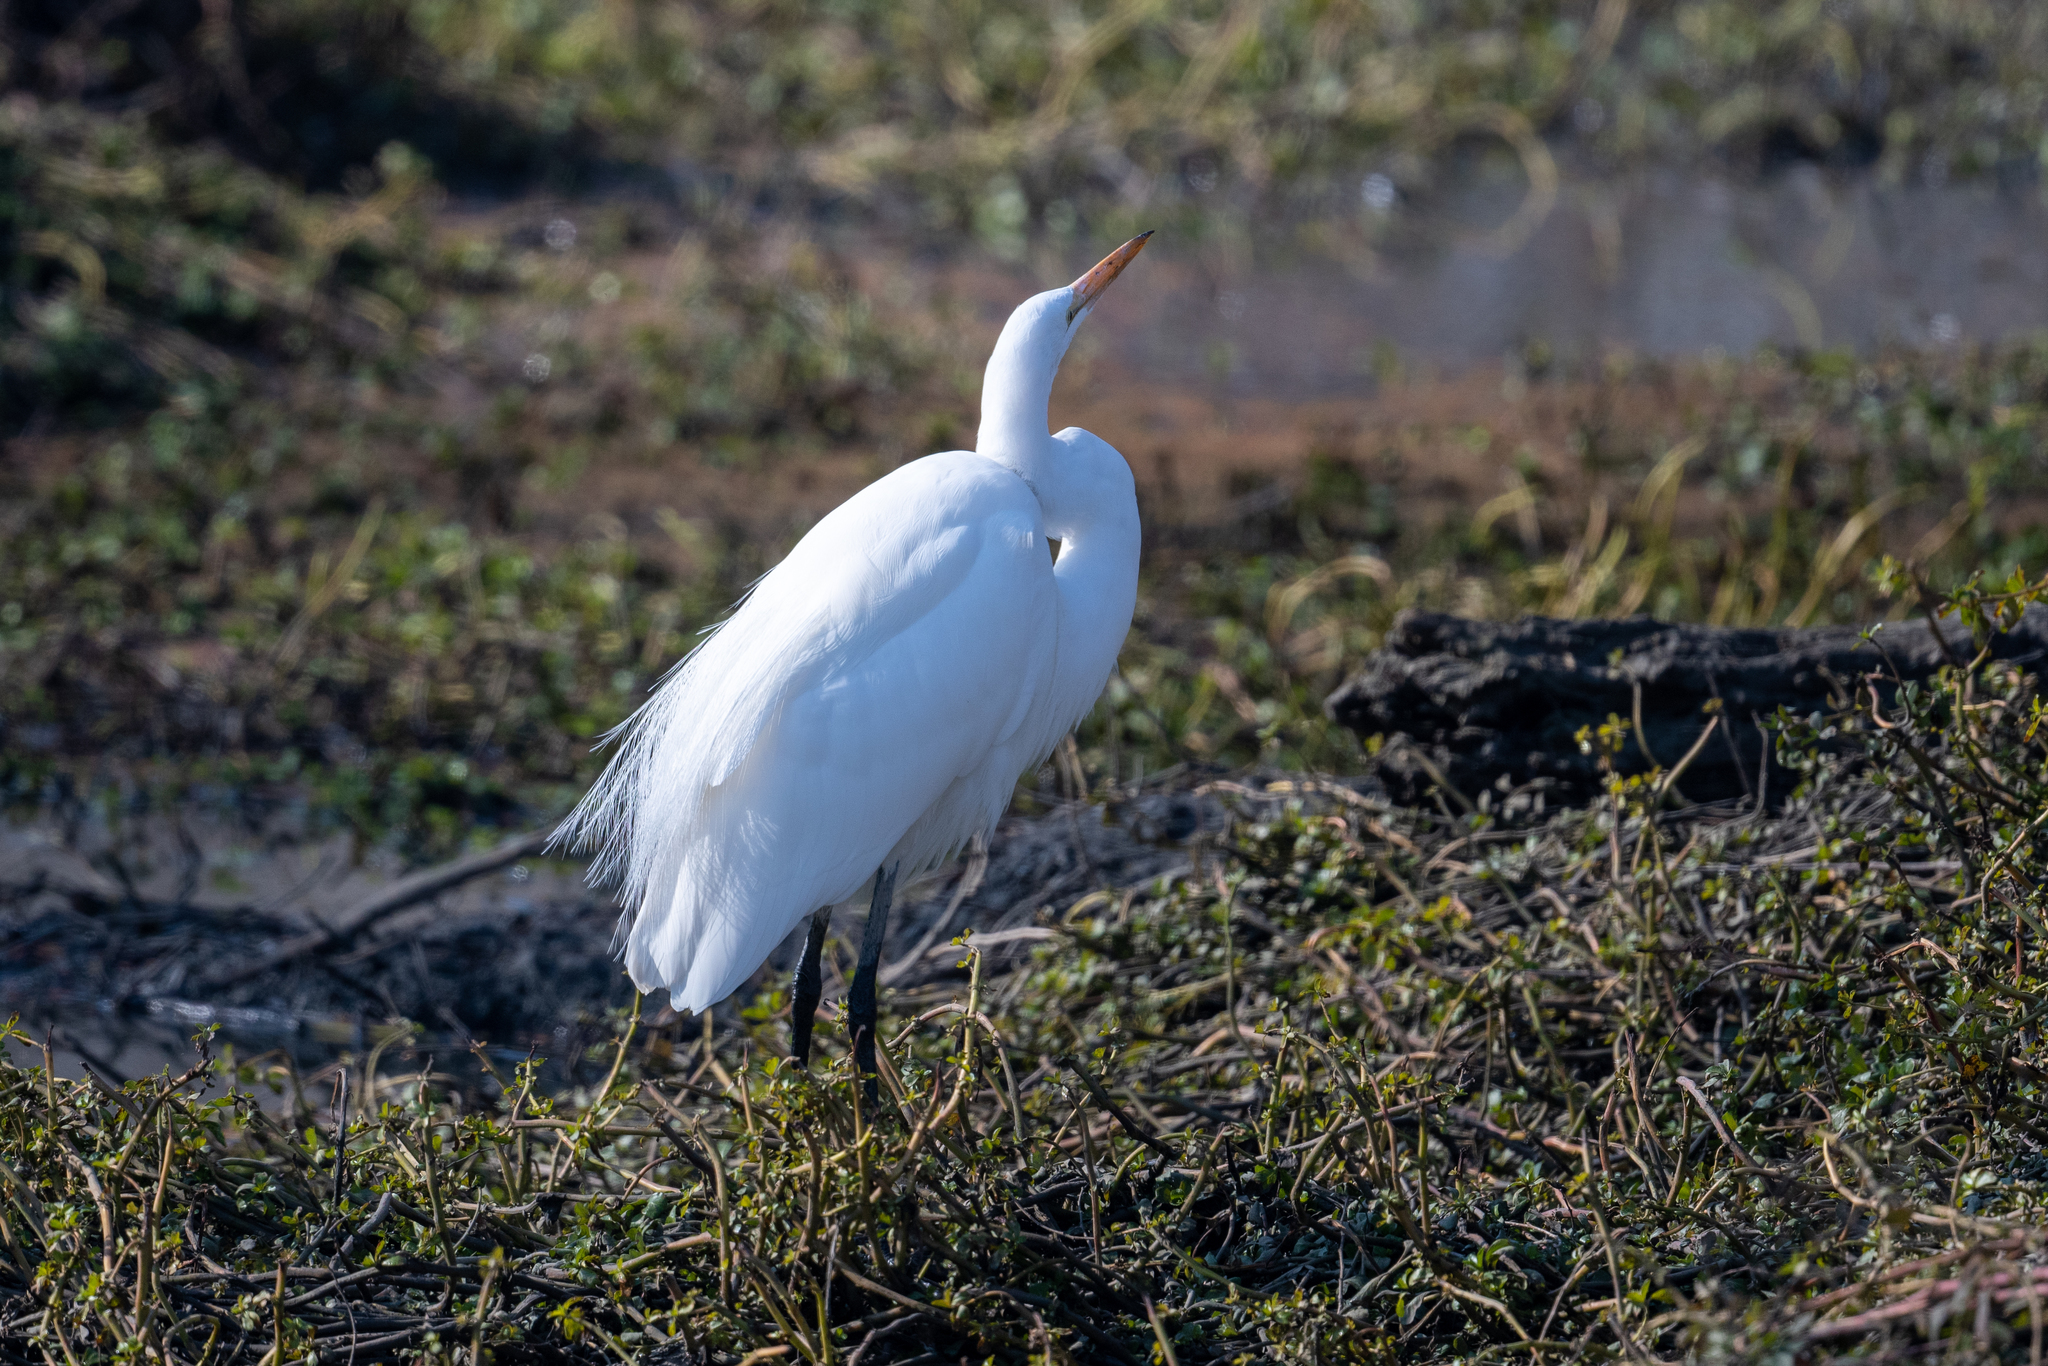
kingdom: Animalia
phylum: Chordata
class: Aves
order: Pelecaniformes
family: Ardeidae
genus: Ardea
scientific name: Ardea alba
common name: Great egret
